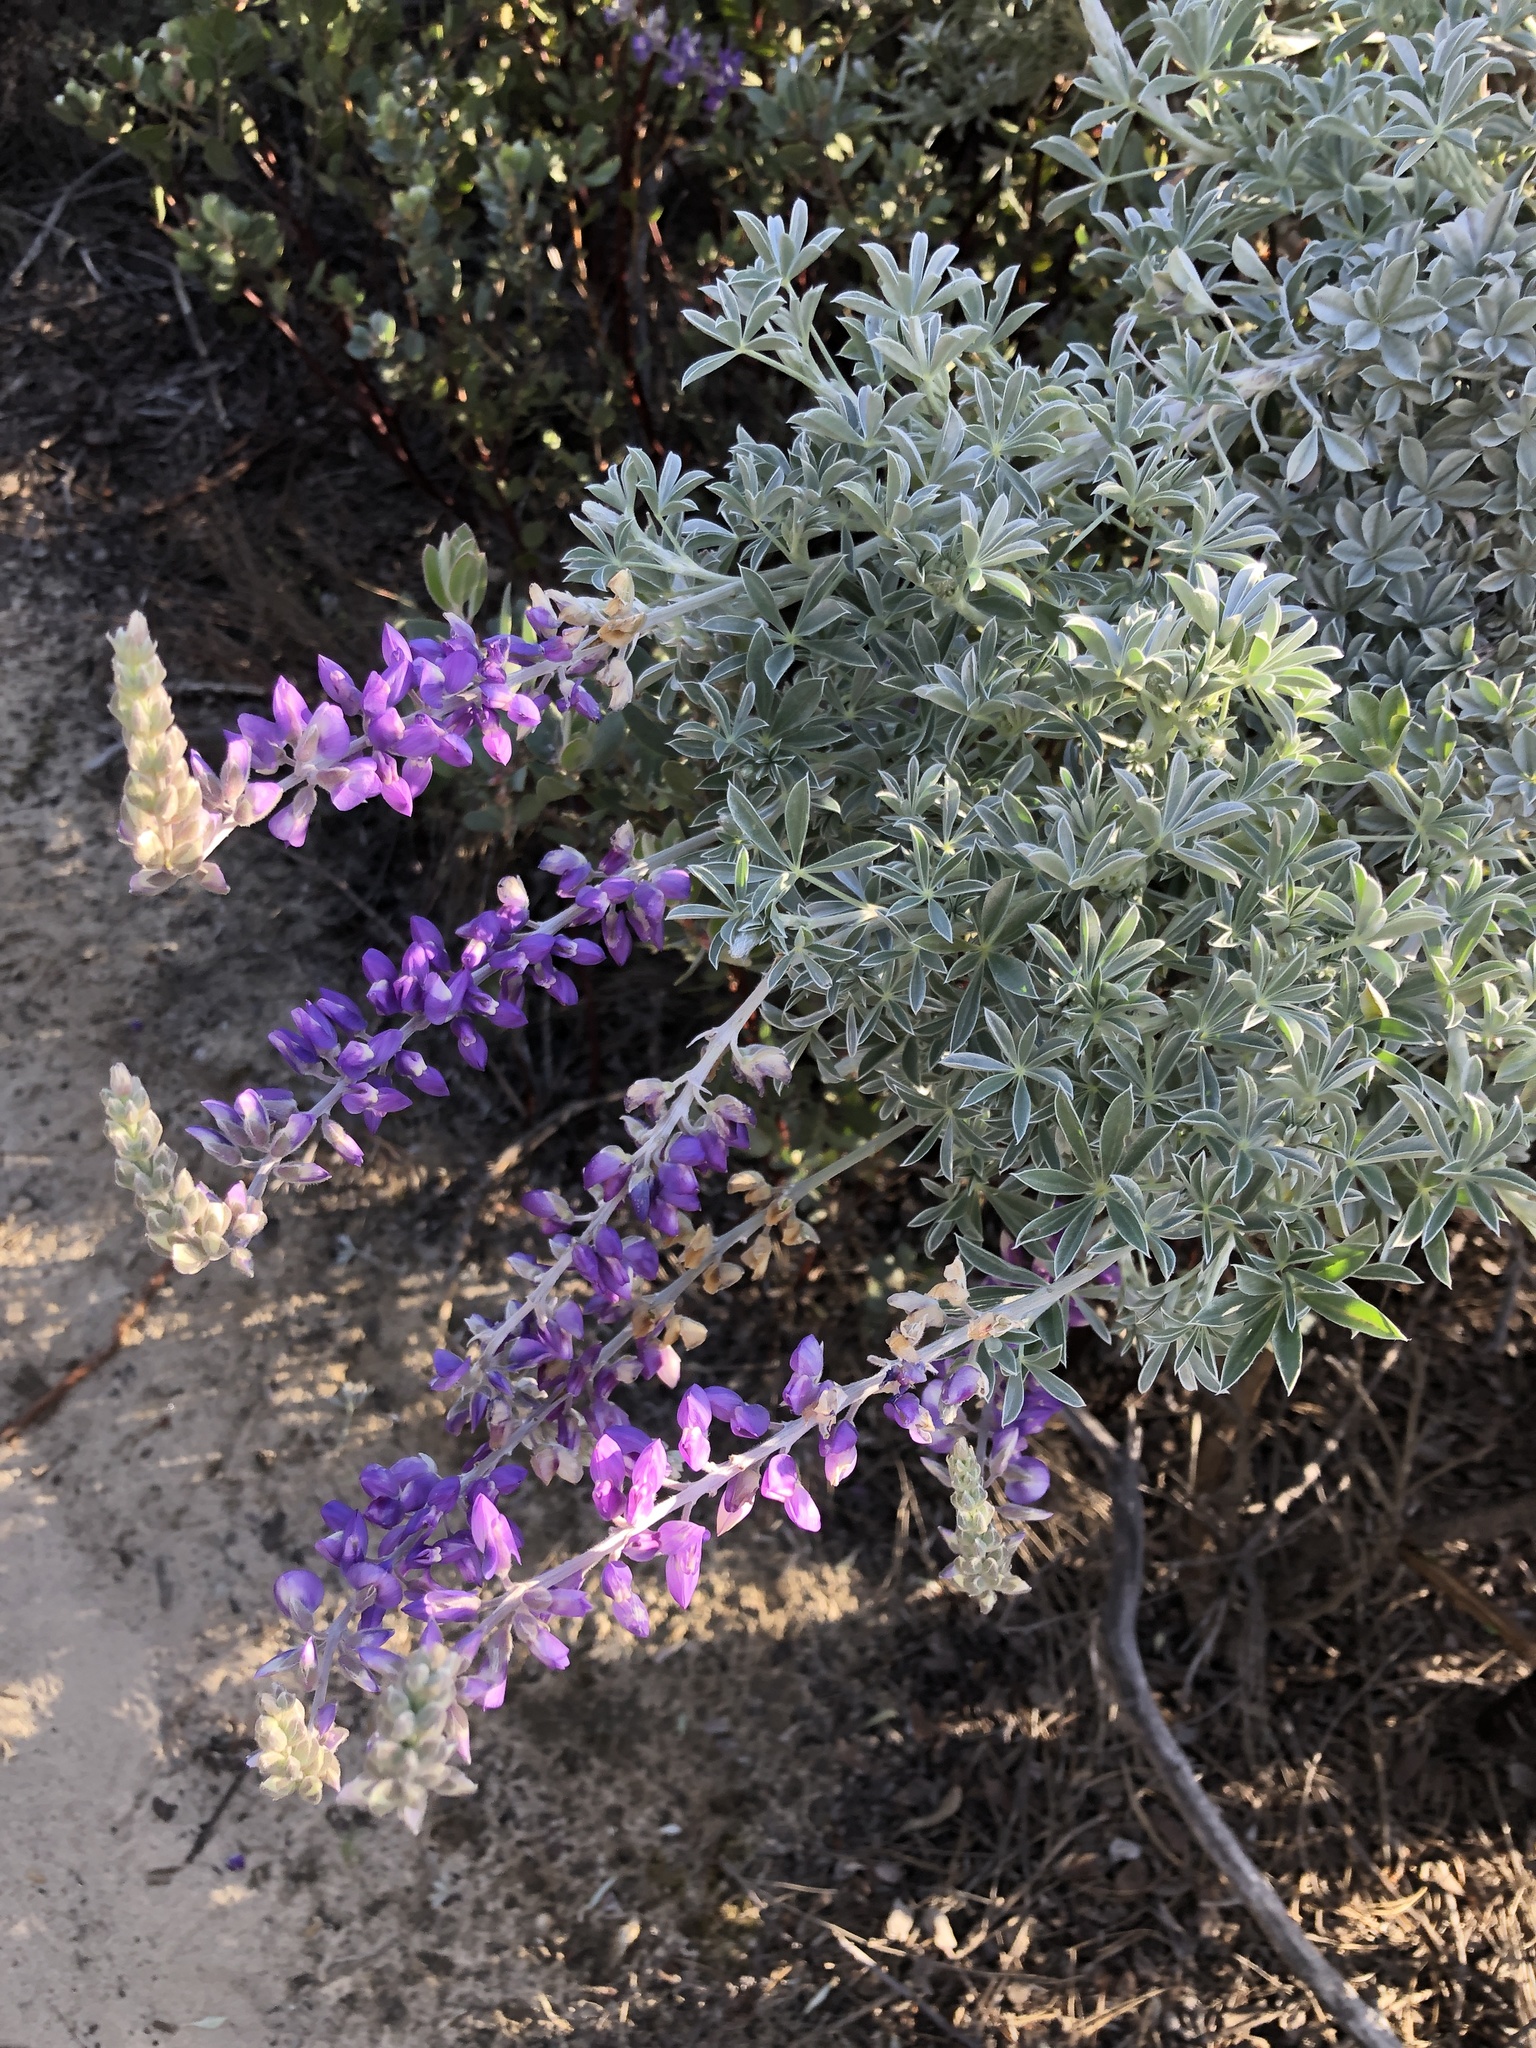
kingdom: Plantae
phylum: Tracheophyta
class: Magnoliopsida
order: Fabales
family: Fabaceae
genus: Lupinus
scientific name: Lupinus albifrons
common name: Foothill lupine
